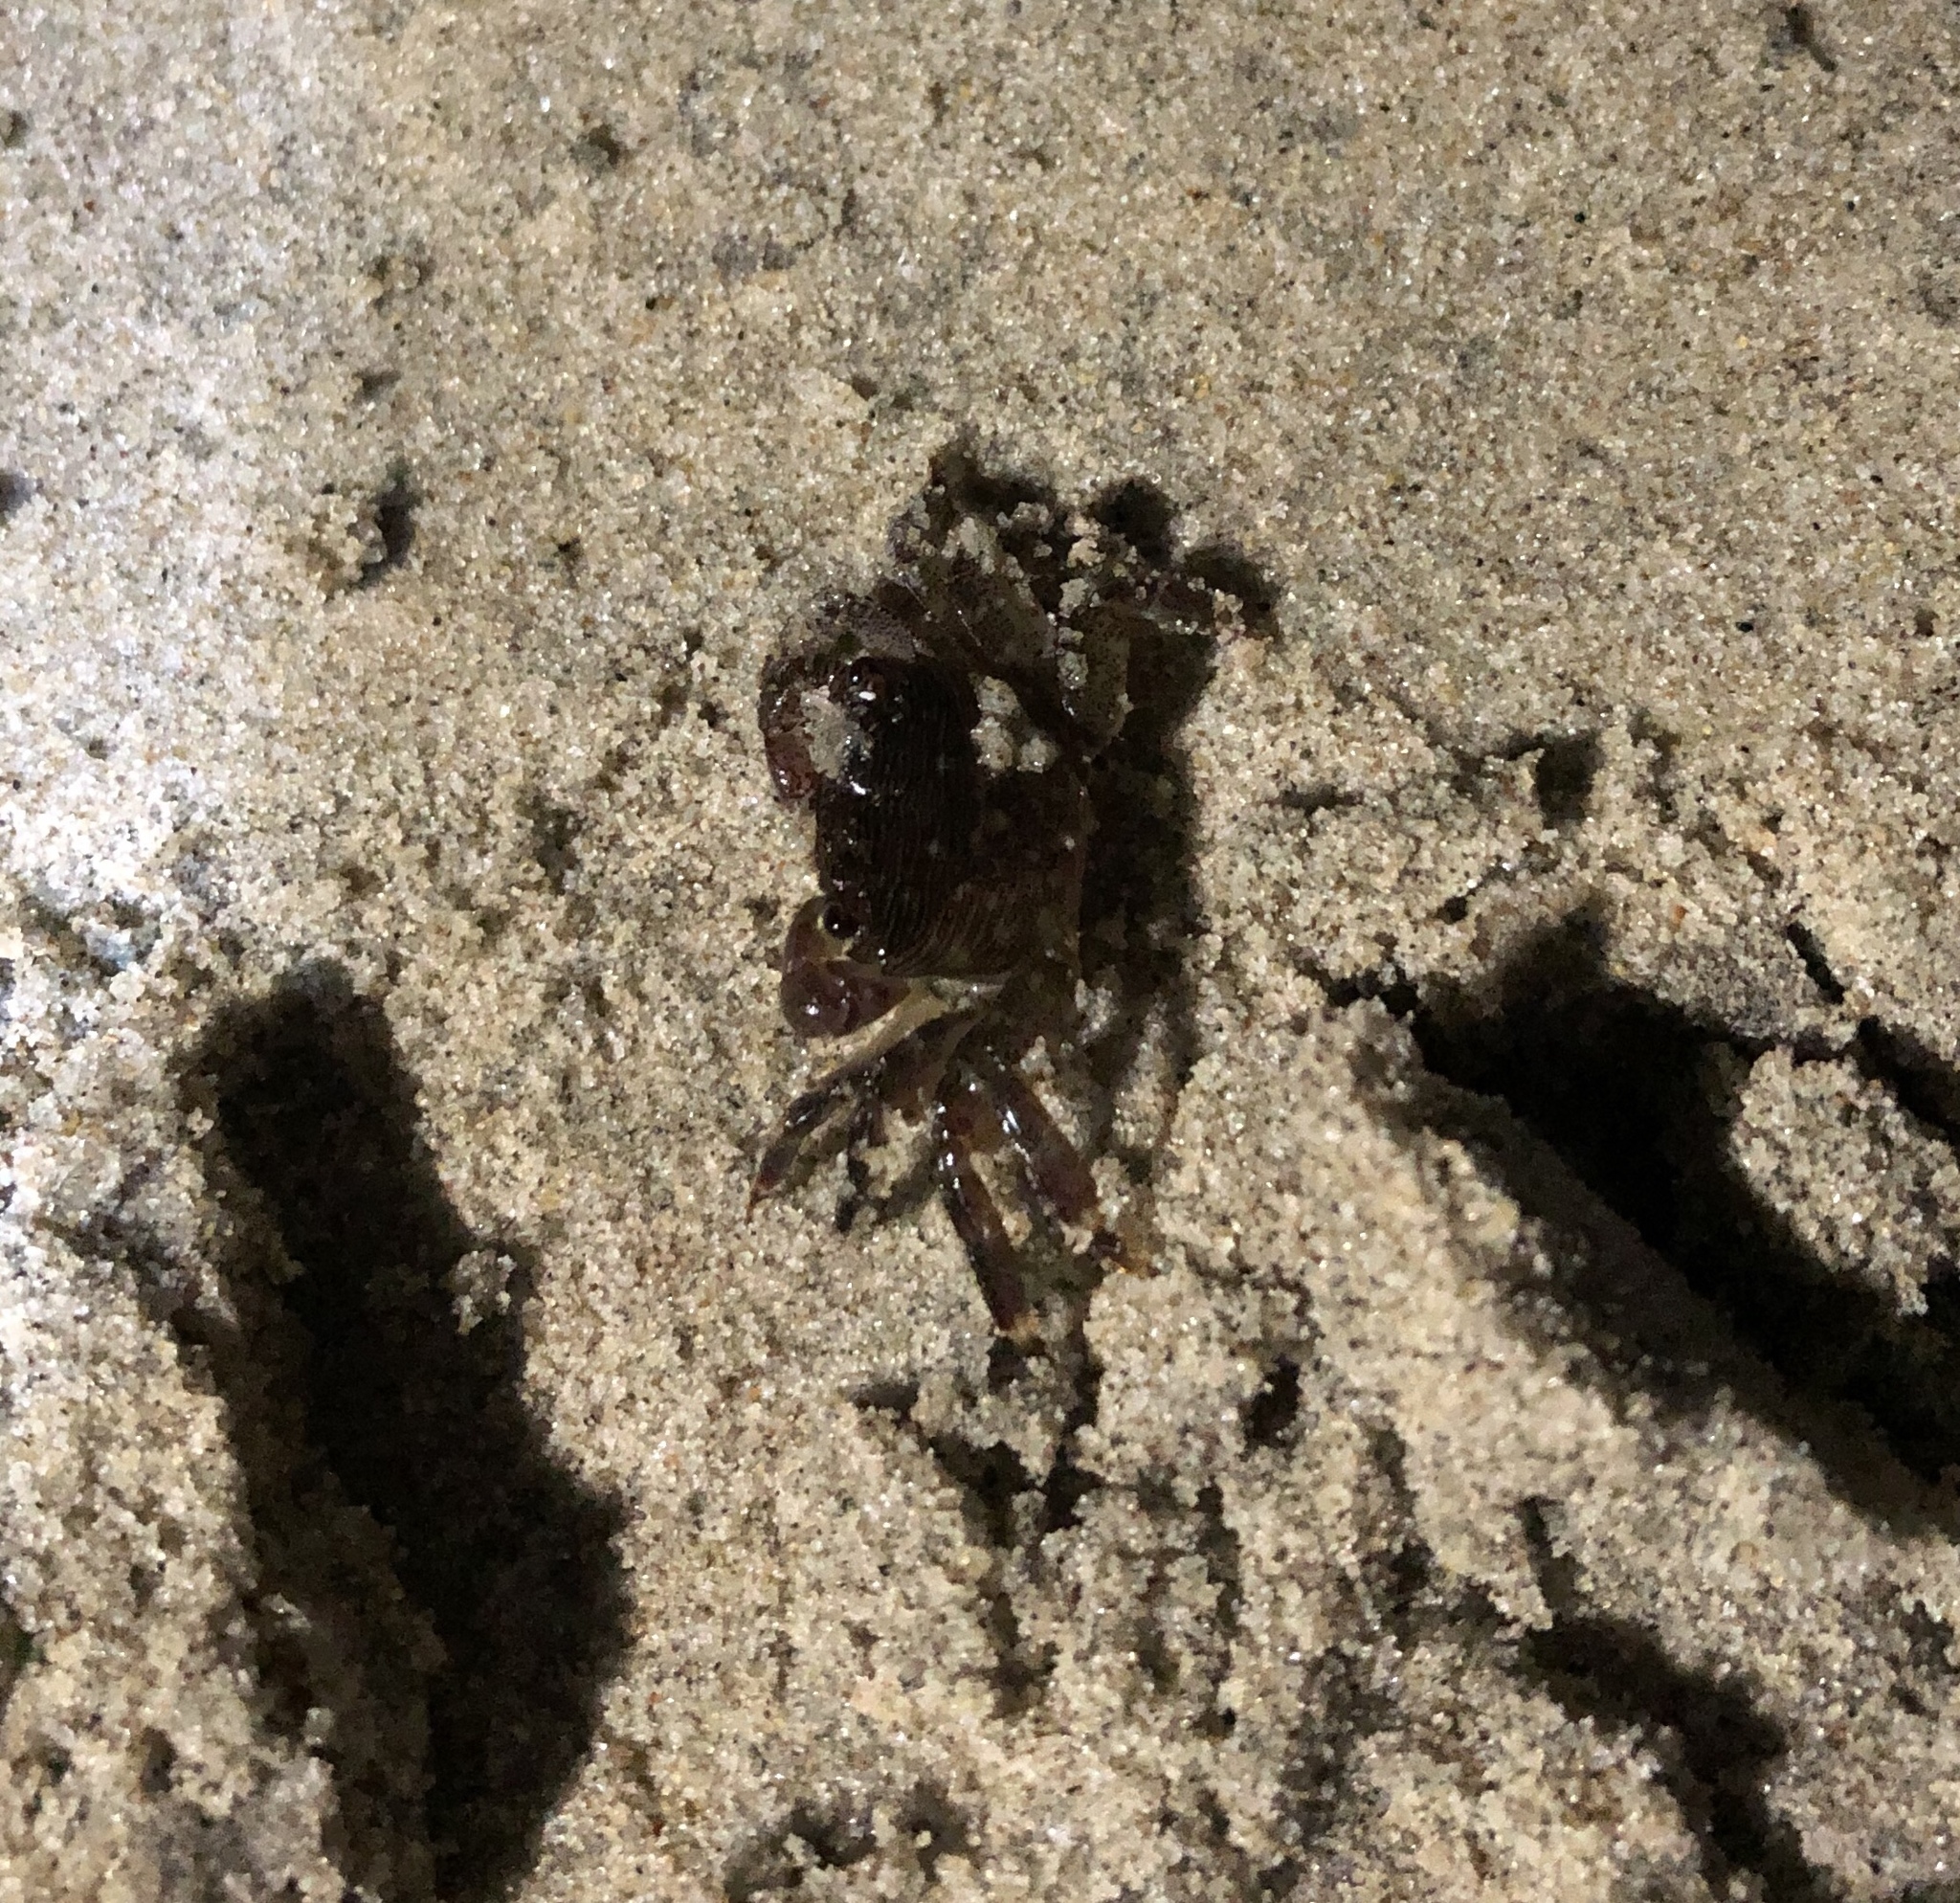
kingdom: Animalia
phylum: Arthropoda
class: Malacostraca
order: Decapoda
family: Grapsidae
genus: Pachygrapsus
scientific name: Pachygrapsus crassipes
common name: Striped shore crab
